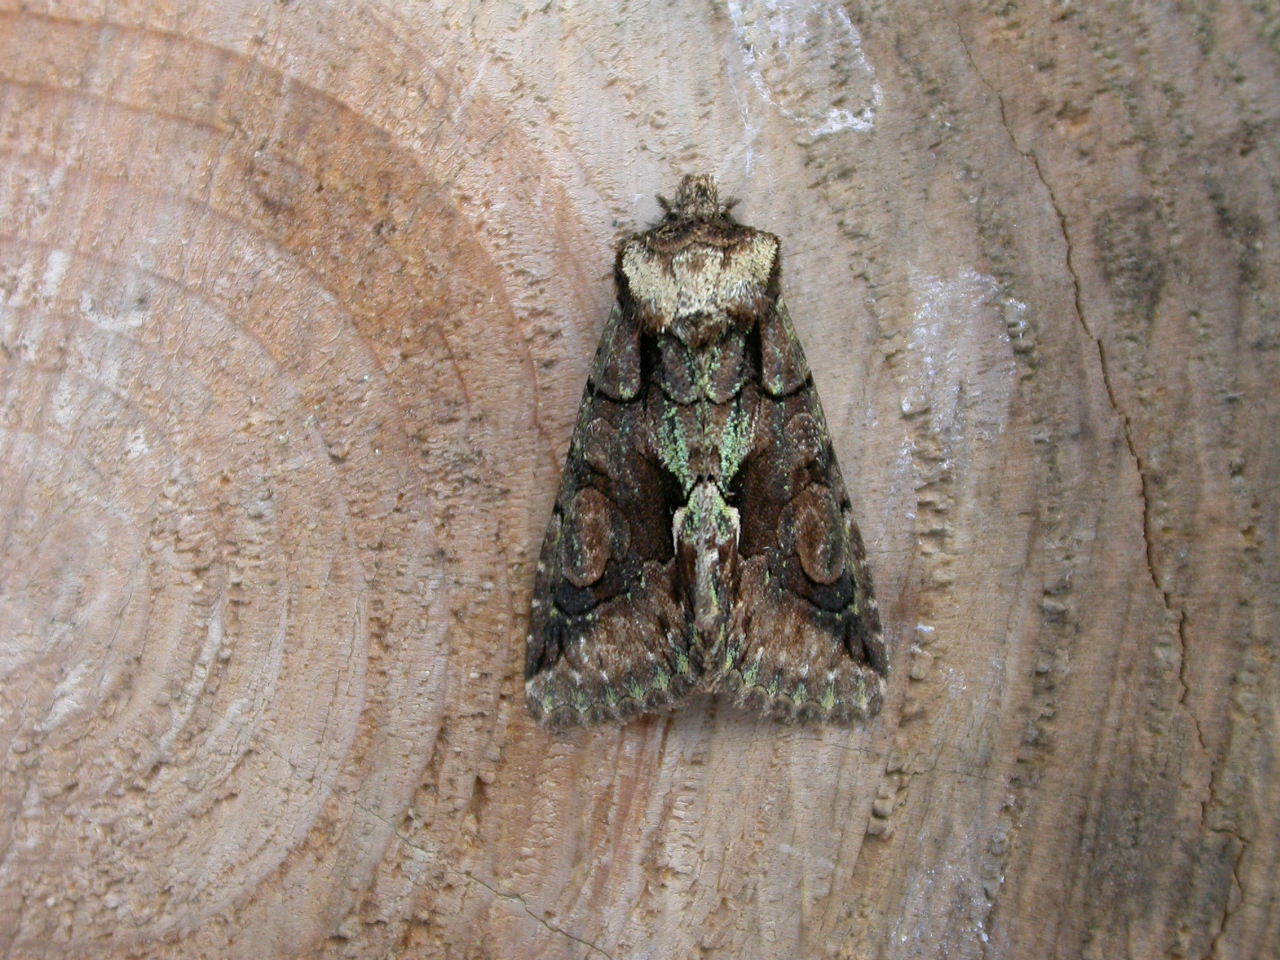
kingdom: Animalia
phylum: Arthropoda
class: Insecta
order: Lepidoptera
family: Noctuidae
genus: Allophyes
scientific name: Allophyes oxyacanthae
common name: Green-brindled crescent
